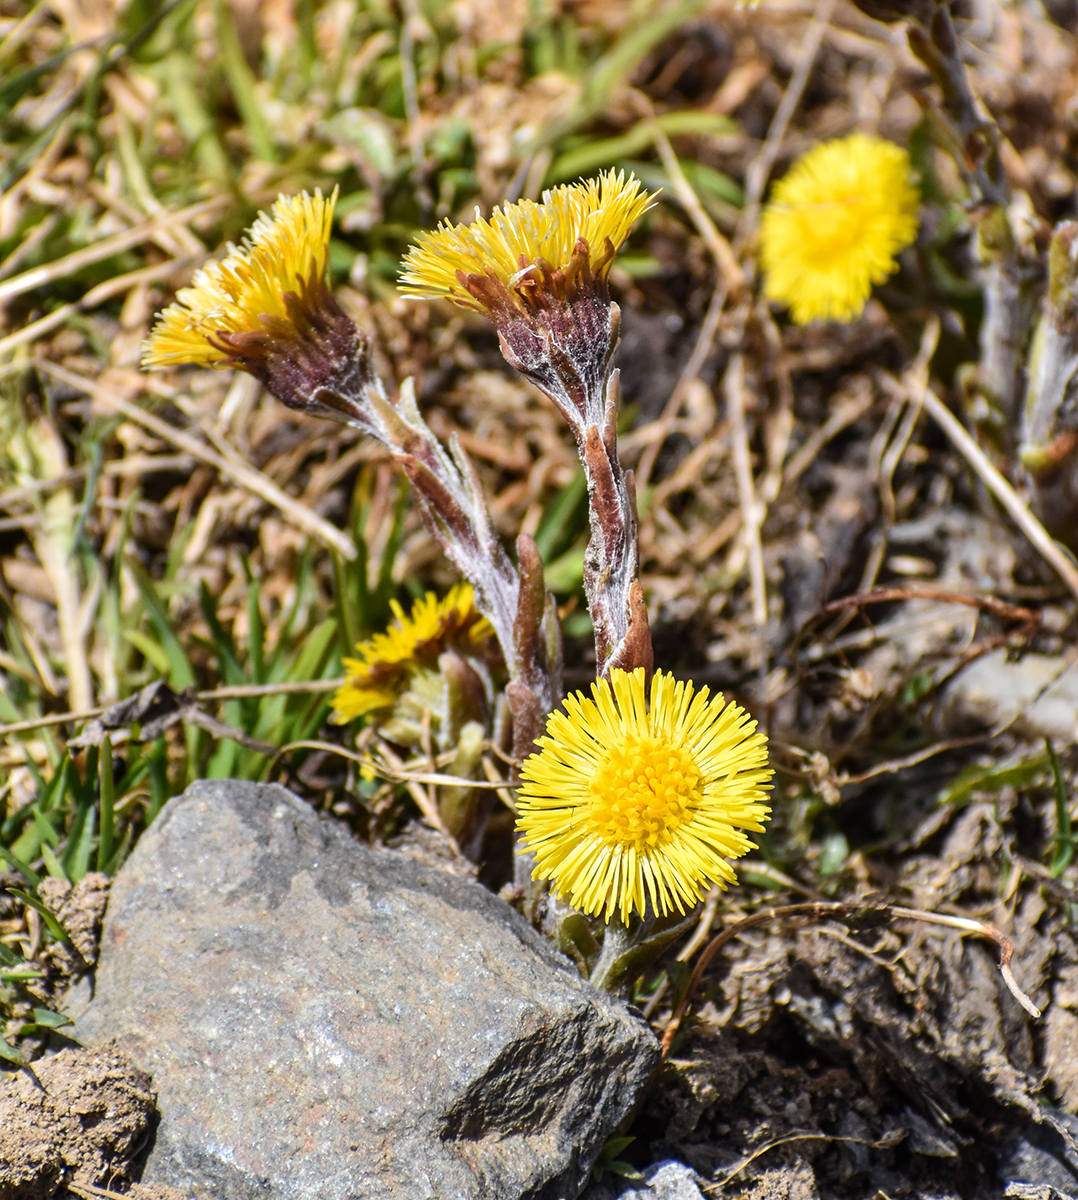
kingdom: Plantae
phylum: Tracheophyta
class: Magnoliopsida
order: Asterales
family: Asteraceae
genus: Tussilago
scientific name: Tussilago farfara
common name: Coltsfoot
